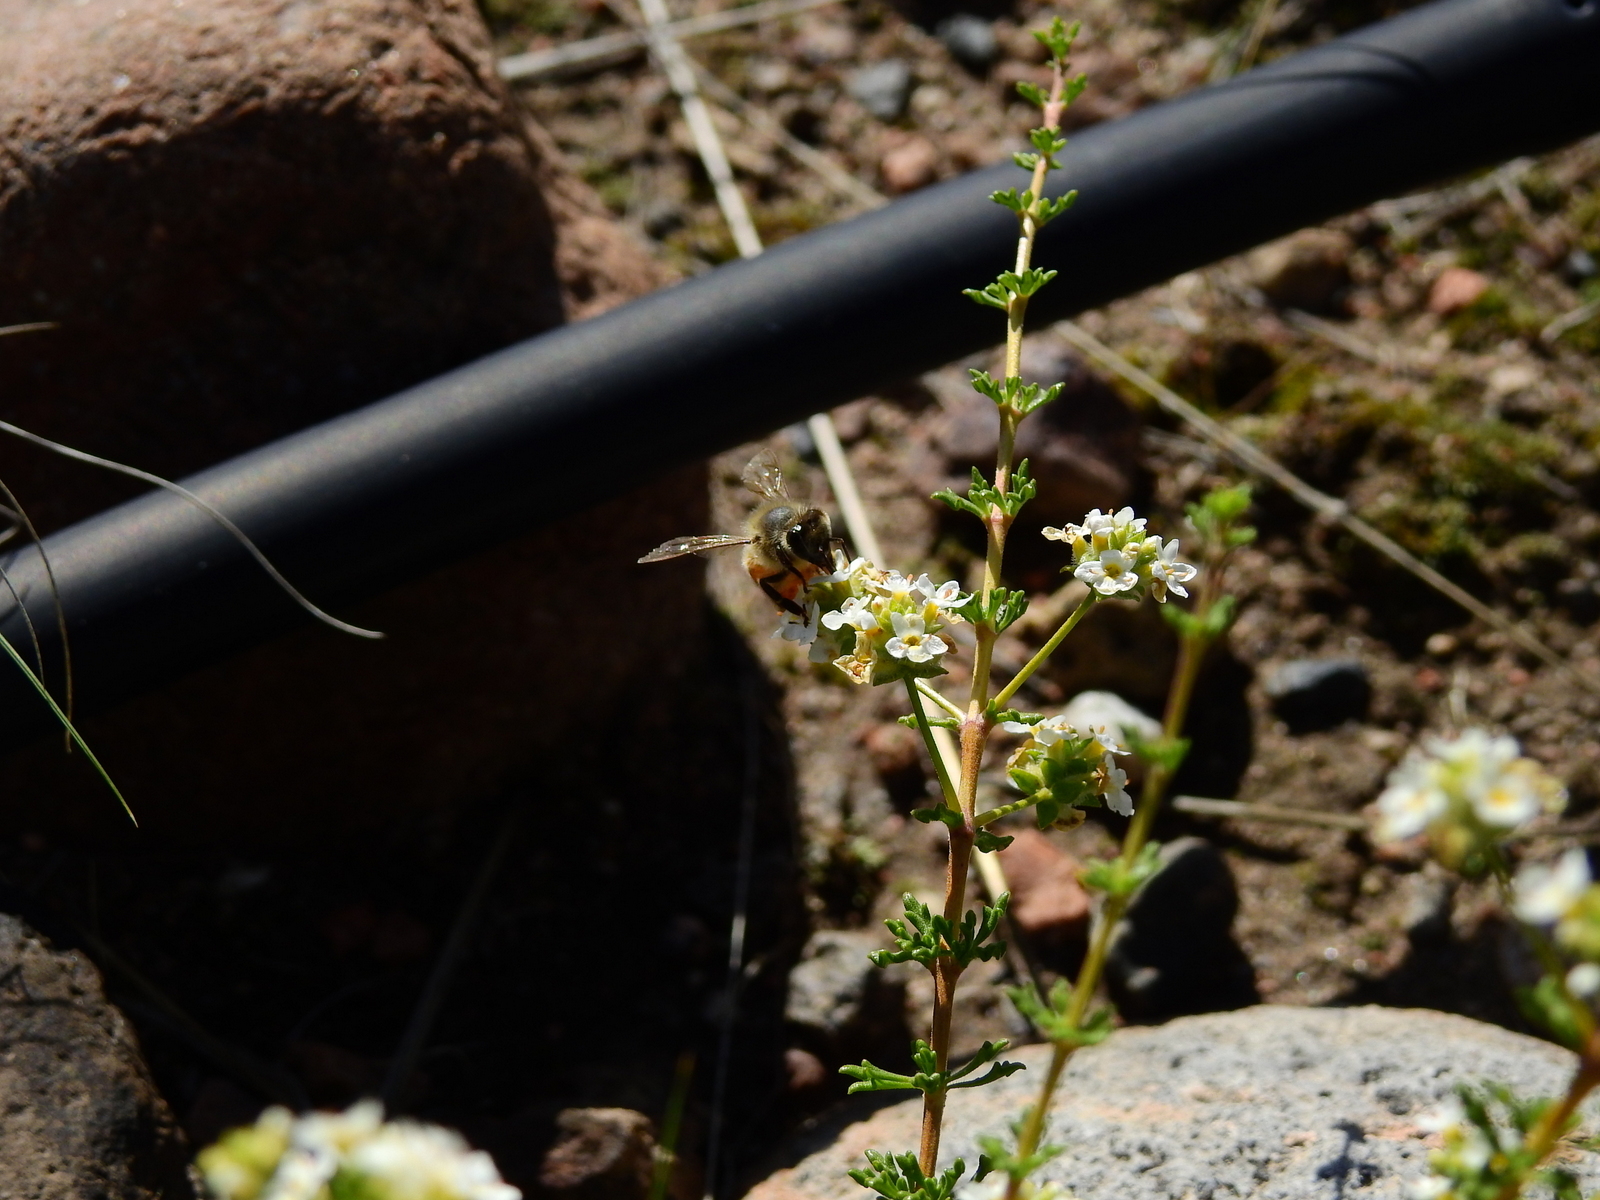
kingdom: Animalia
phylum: Arthropoda
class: Insecta
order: Hymenoptera
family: Apidae
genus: Apis
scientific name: Apis mellifera
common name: Honey bee
